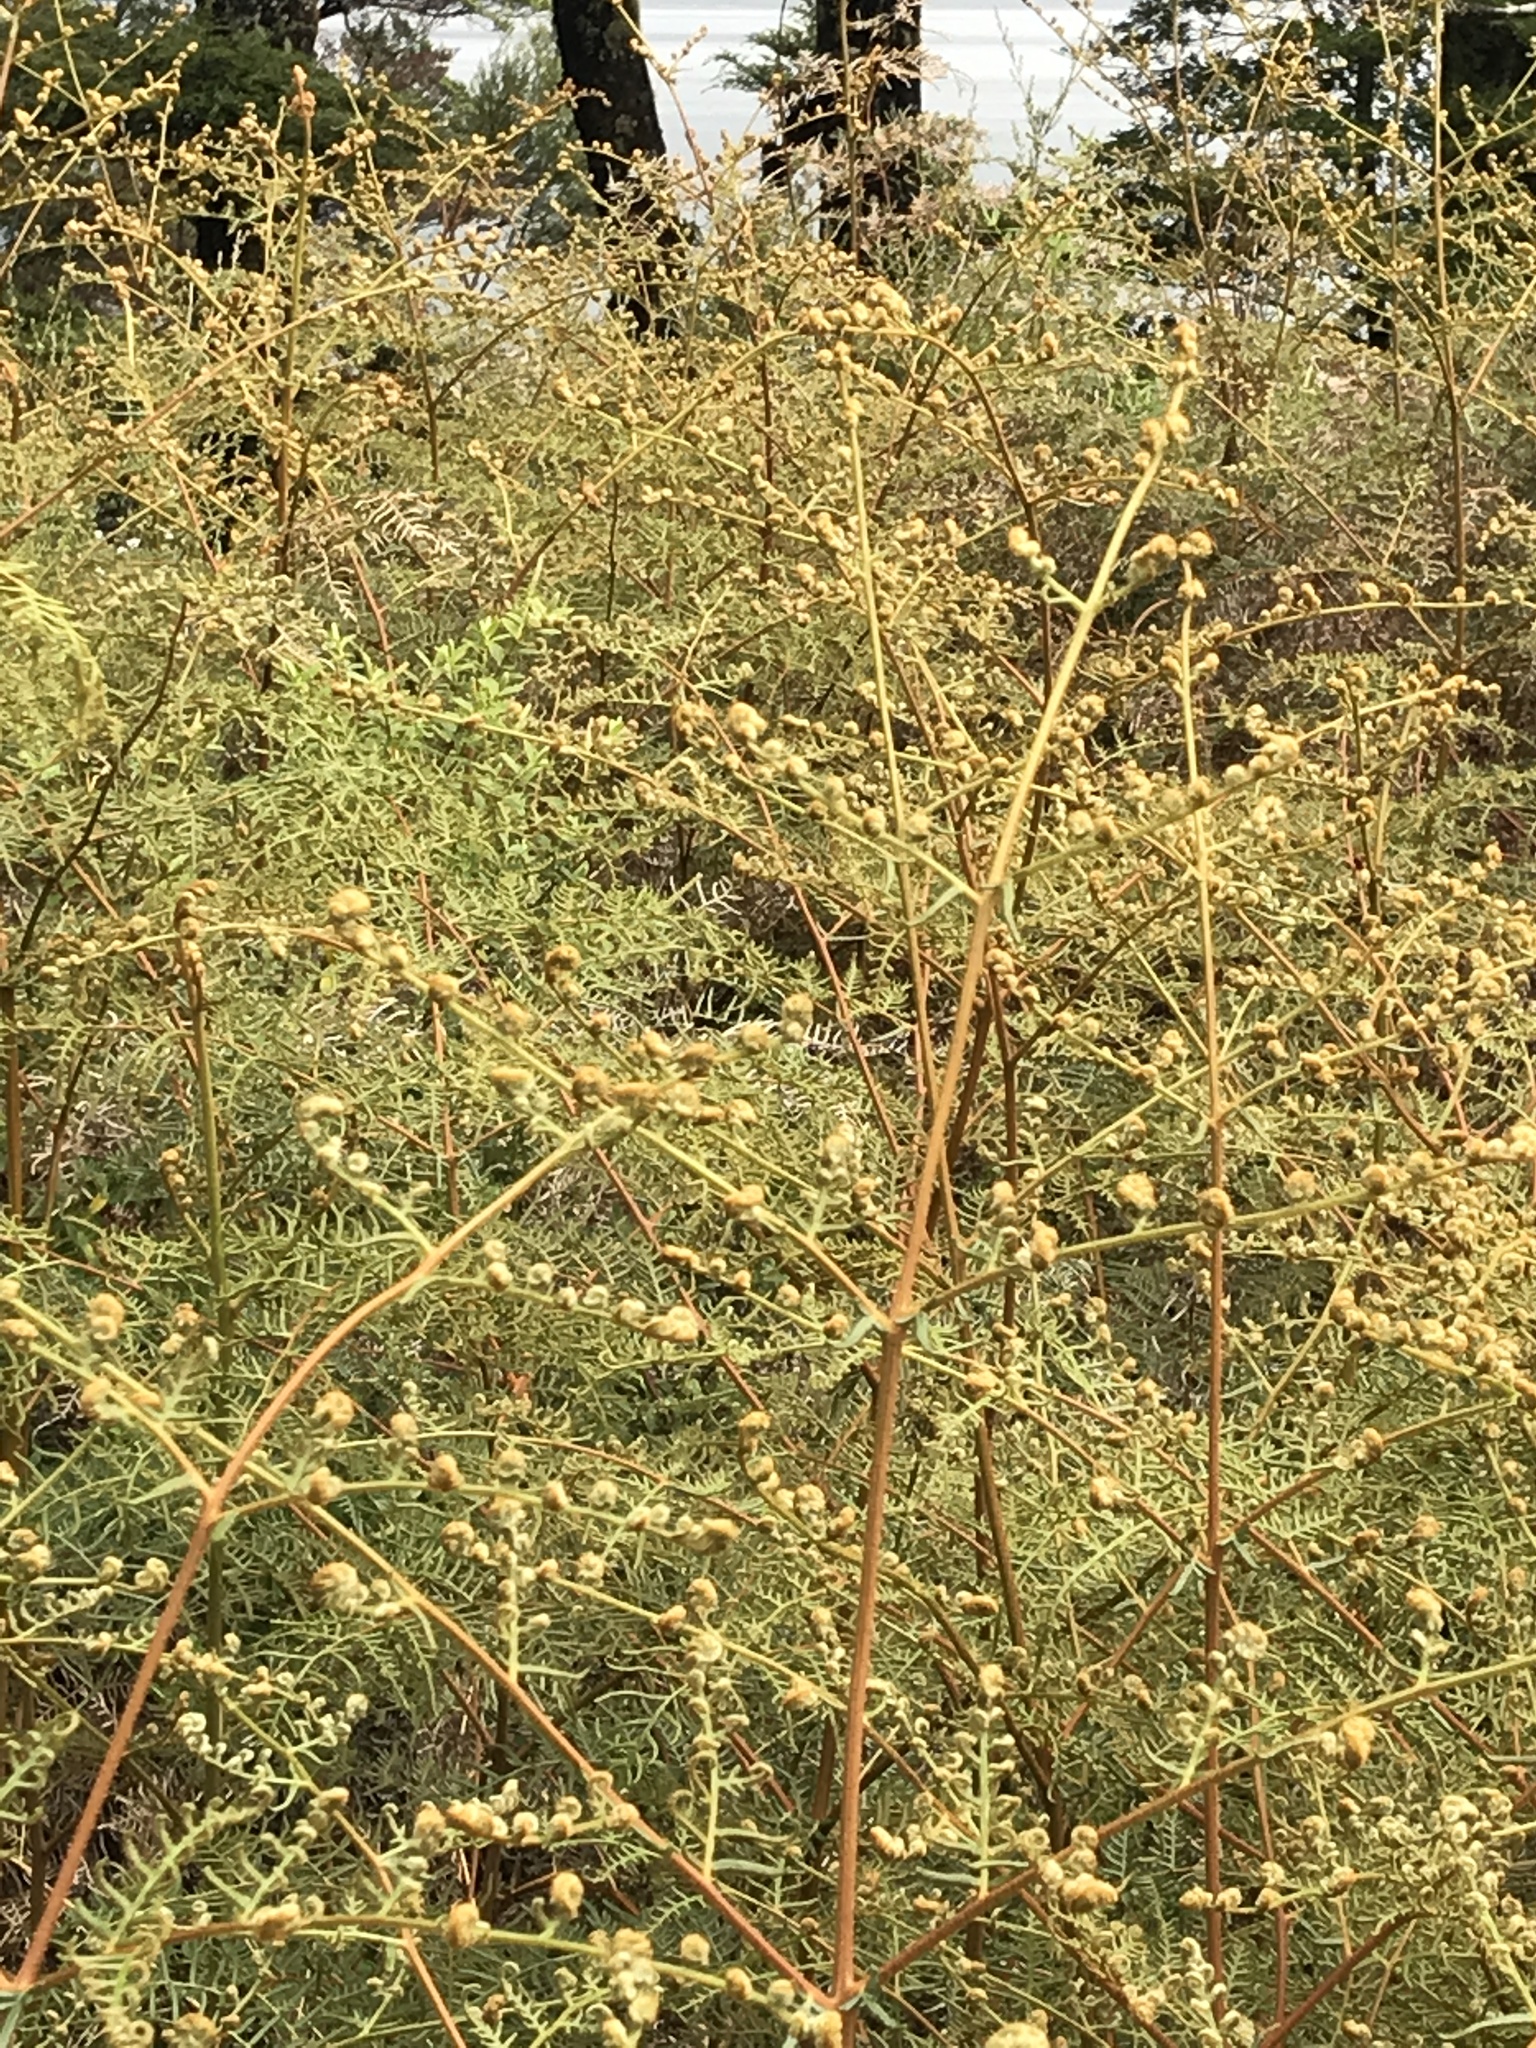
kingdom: Plantae
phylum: Tracheophyta
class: Polypodiopsida
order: Polypodiales
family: Dennstaedtiaceae
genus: Pteridium
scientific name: Pteridium esculentum
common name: Bracken fern
